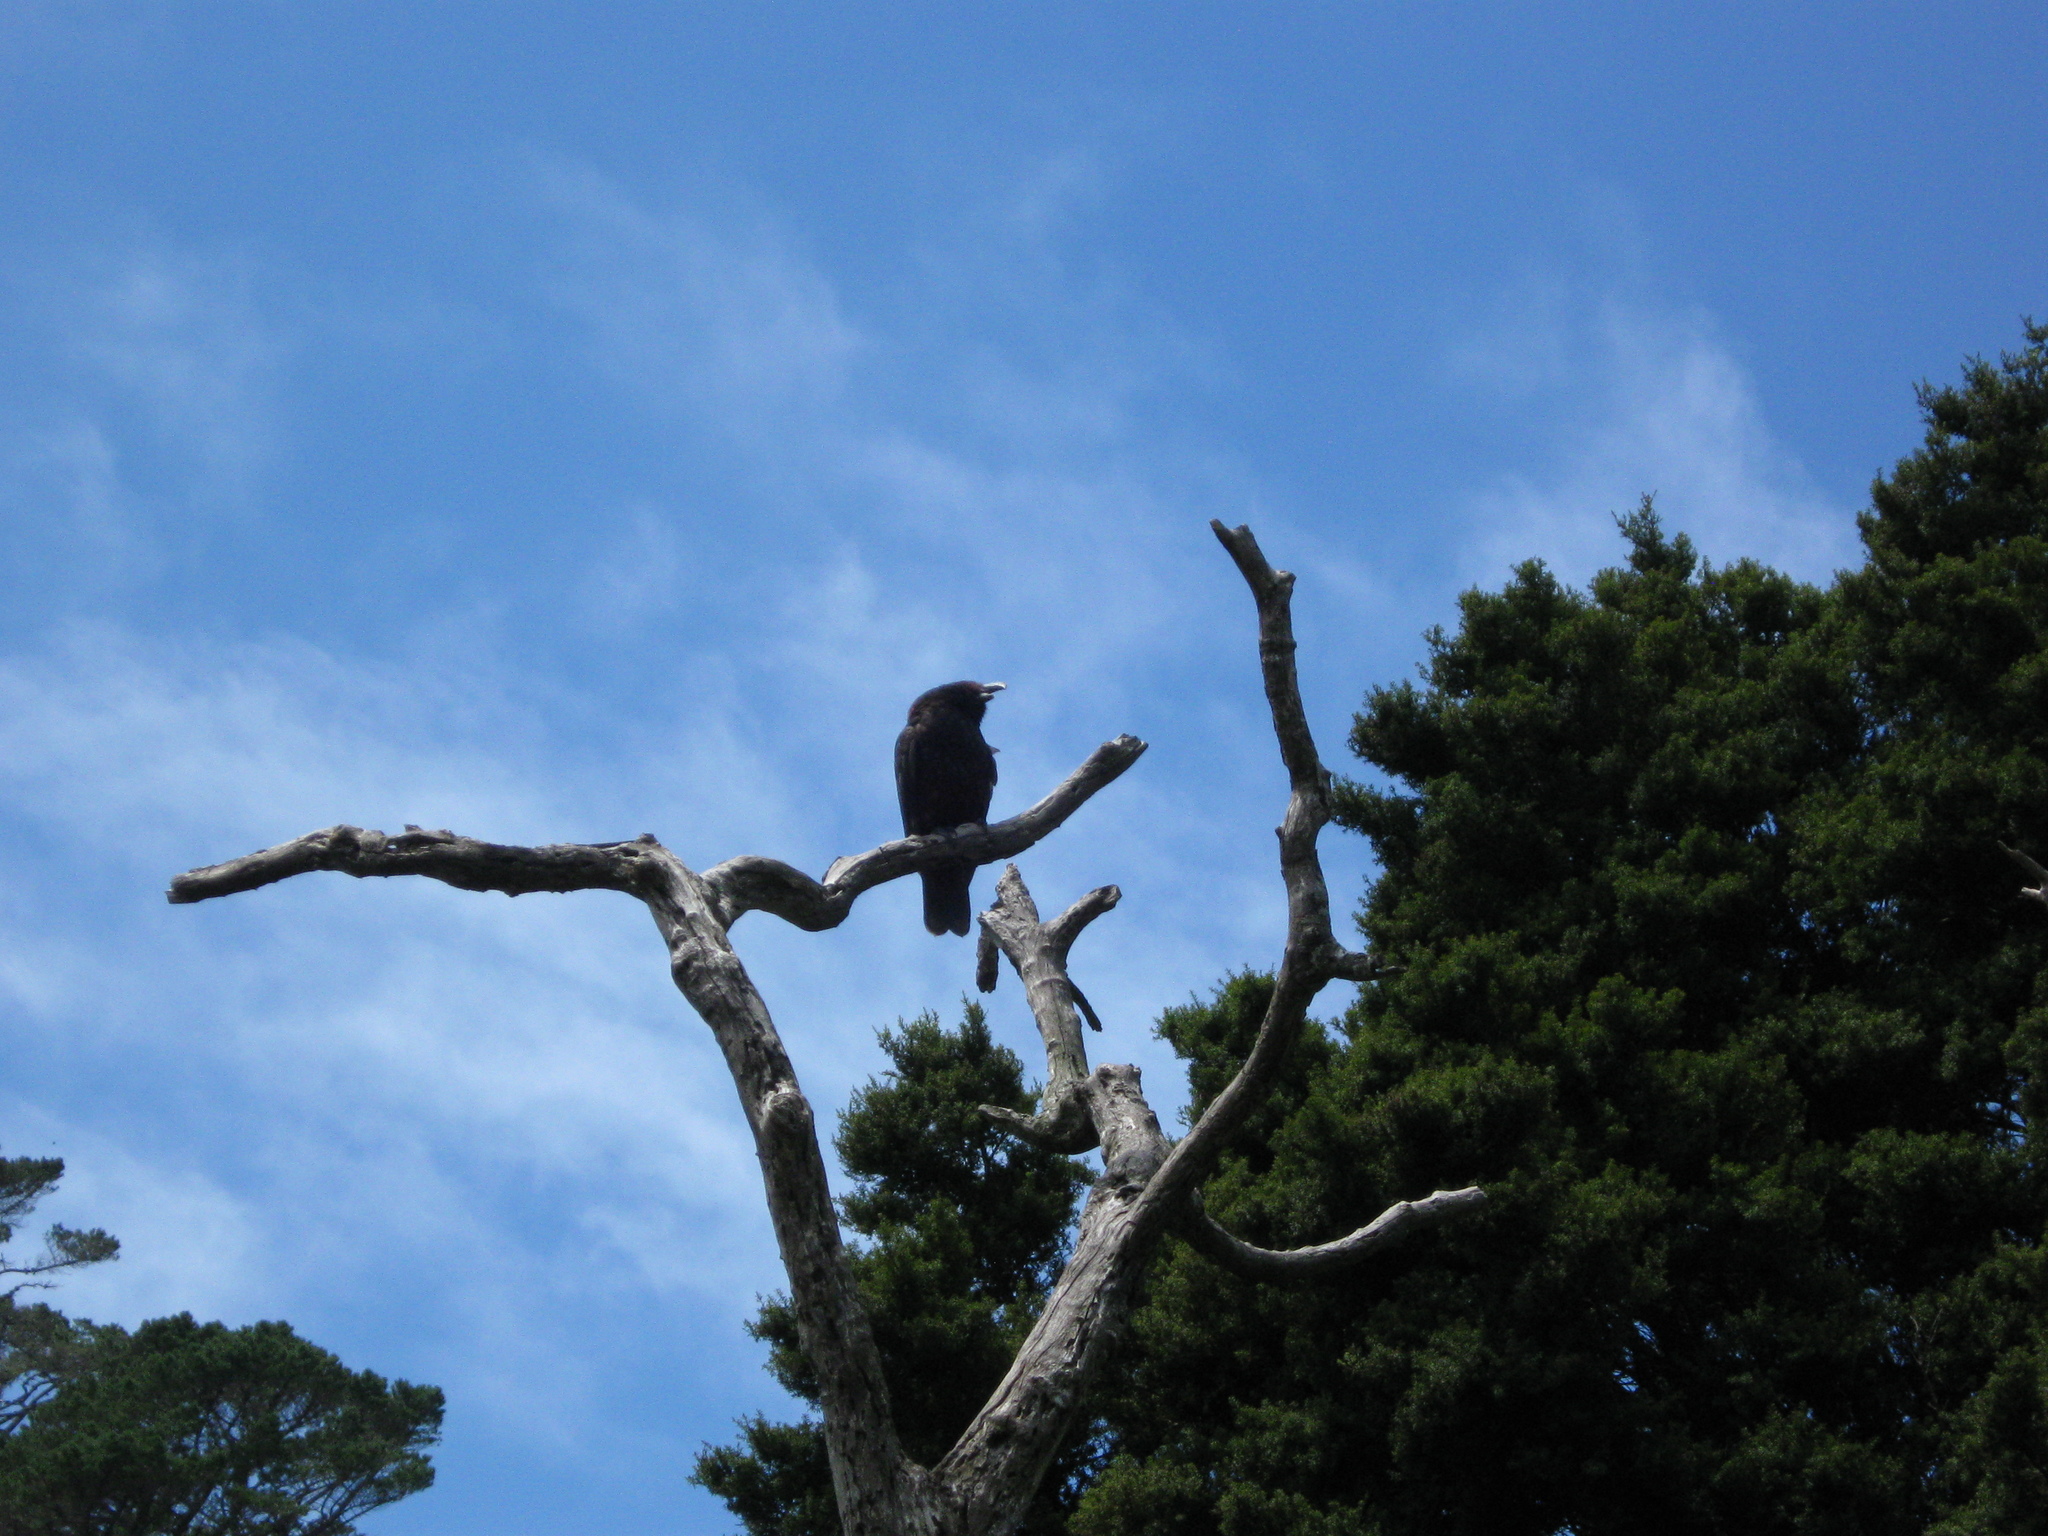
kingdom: Animalia
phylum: Chordata
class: Aves
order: Psittaciformes
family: Psittacidae
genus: Nestor
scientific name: Nestor meridionalis
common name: New zealand kaka
